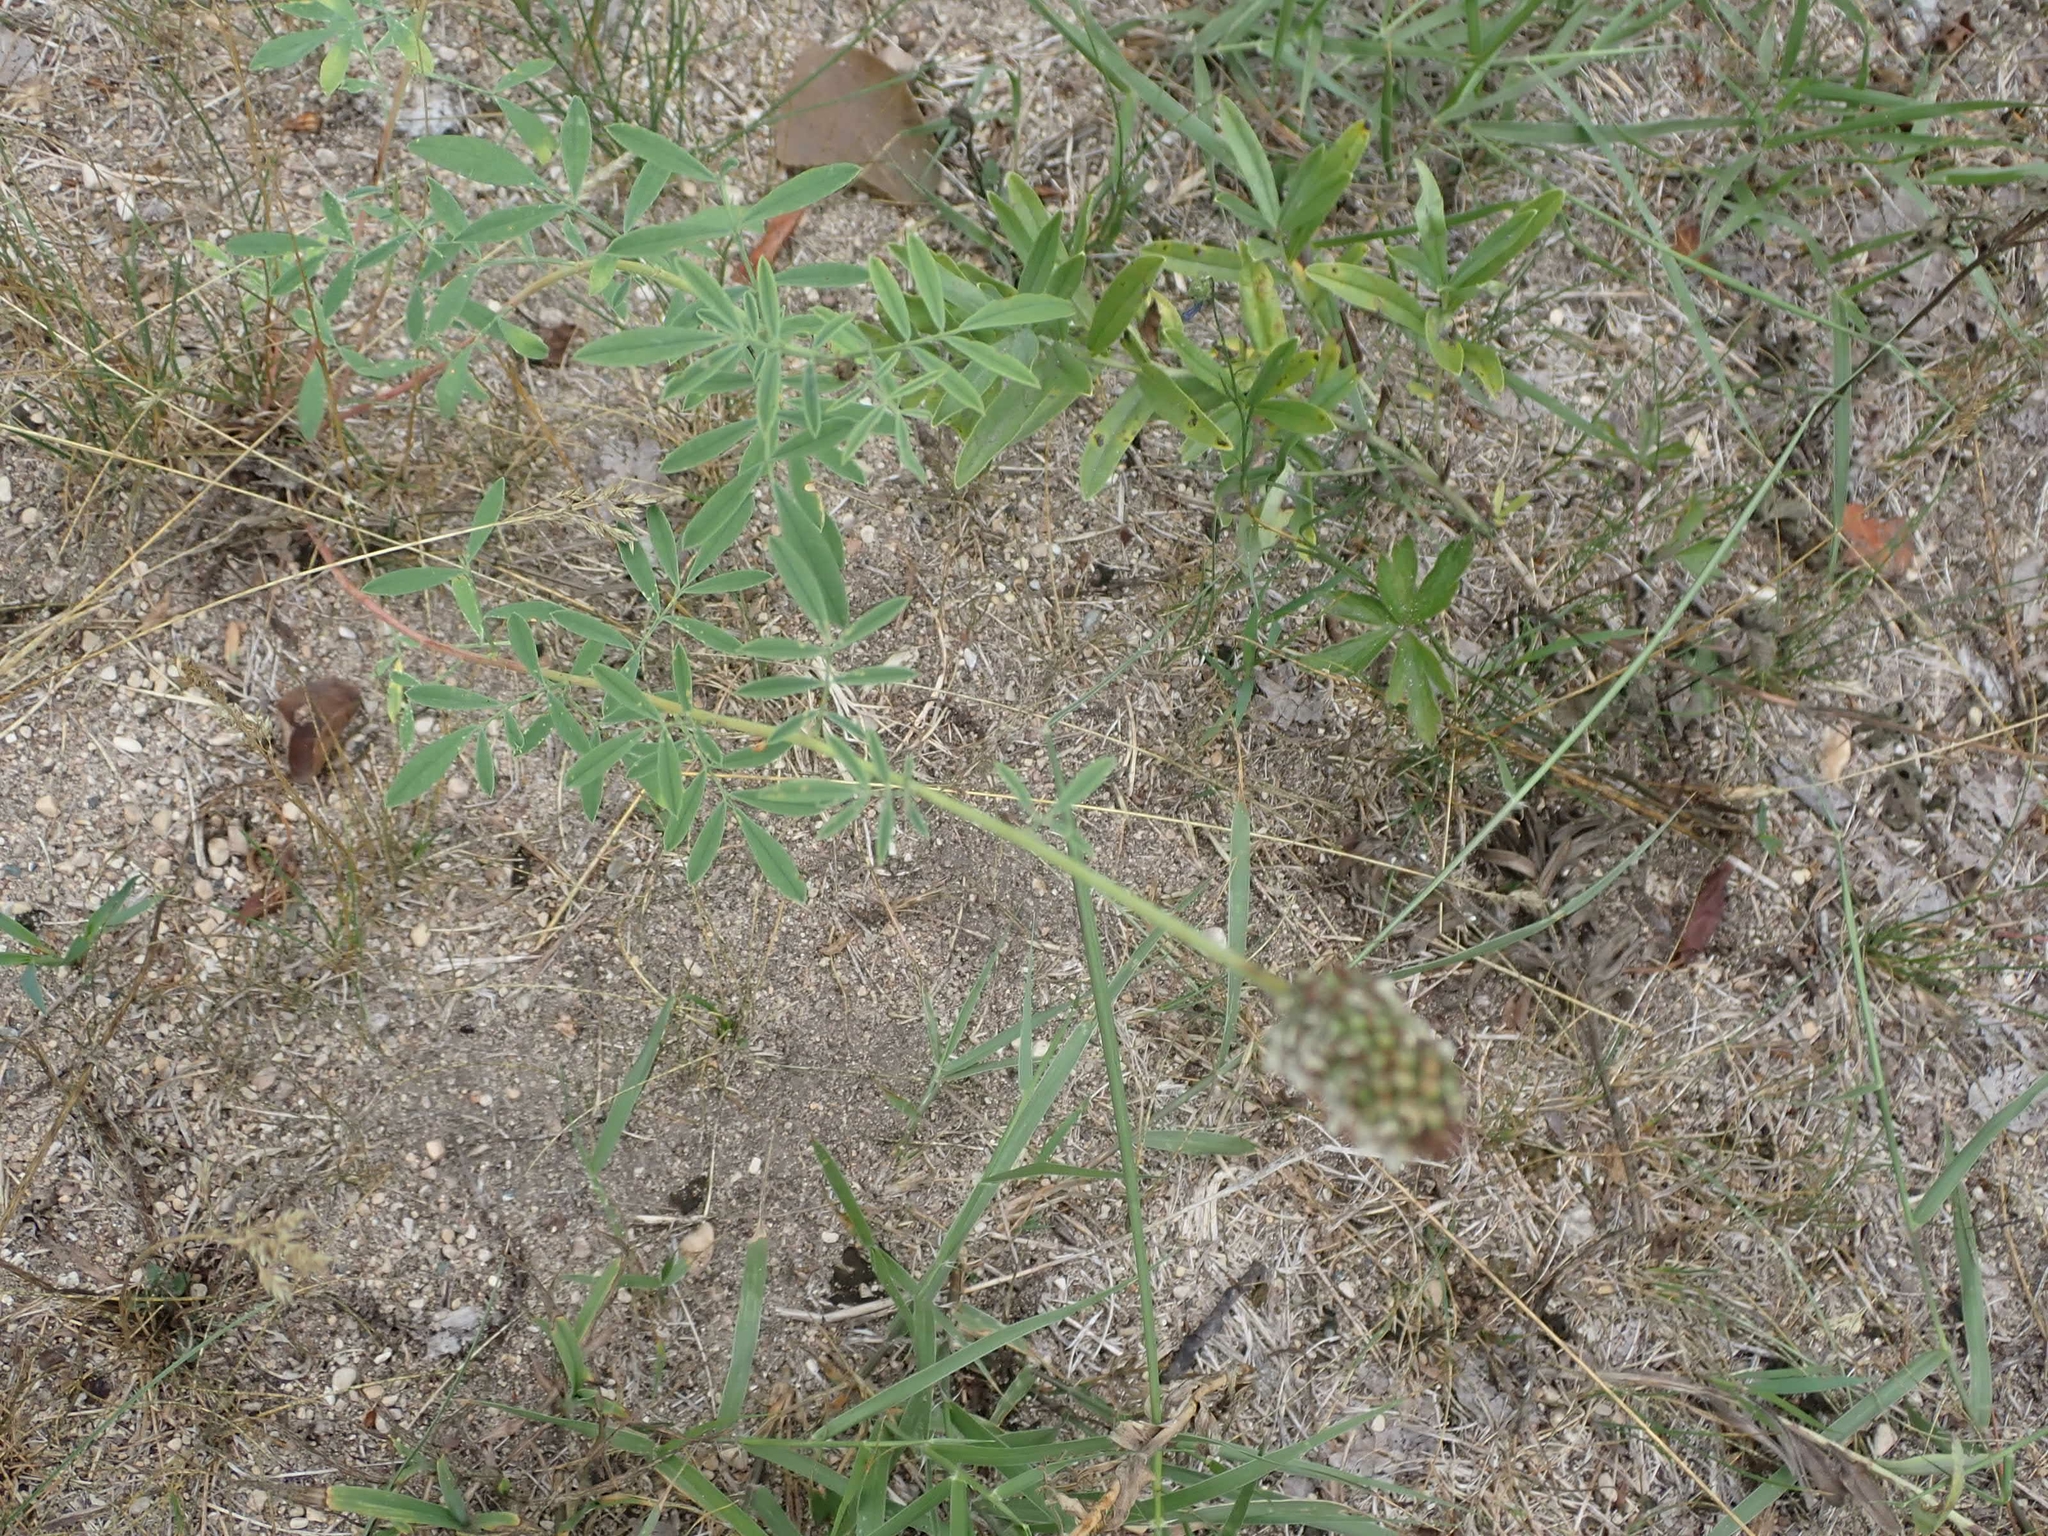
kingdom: Plantae
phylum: Tracheophyta
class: Magnoliopsida
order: Fabales
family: Fabaceae
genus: Dalea
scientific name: Dalea candida
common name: White prairie-clover
